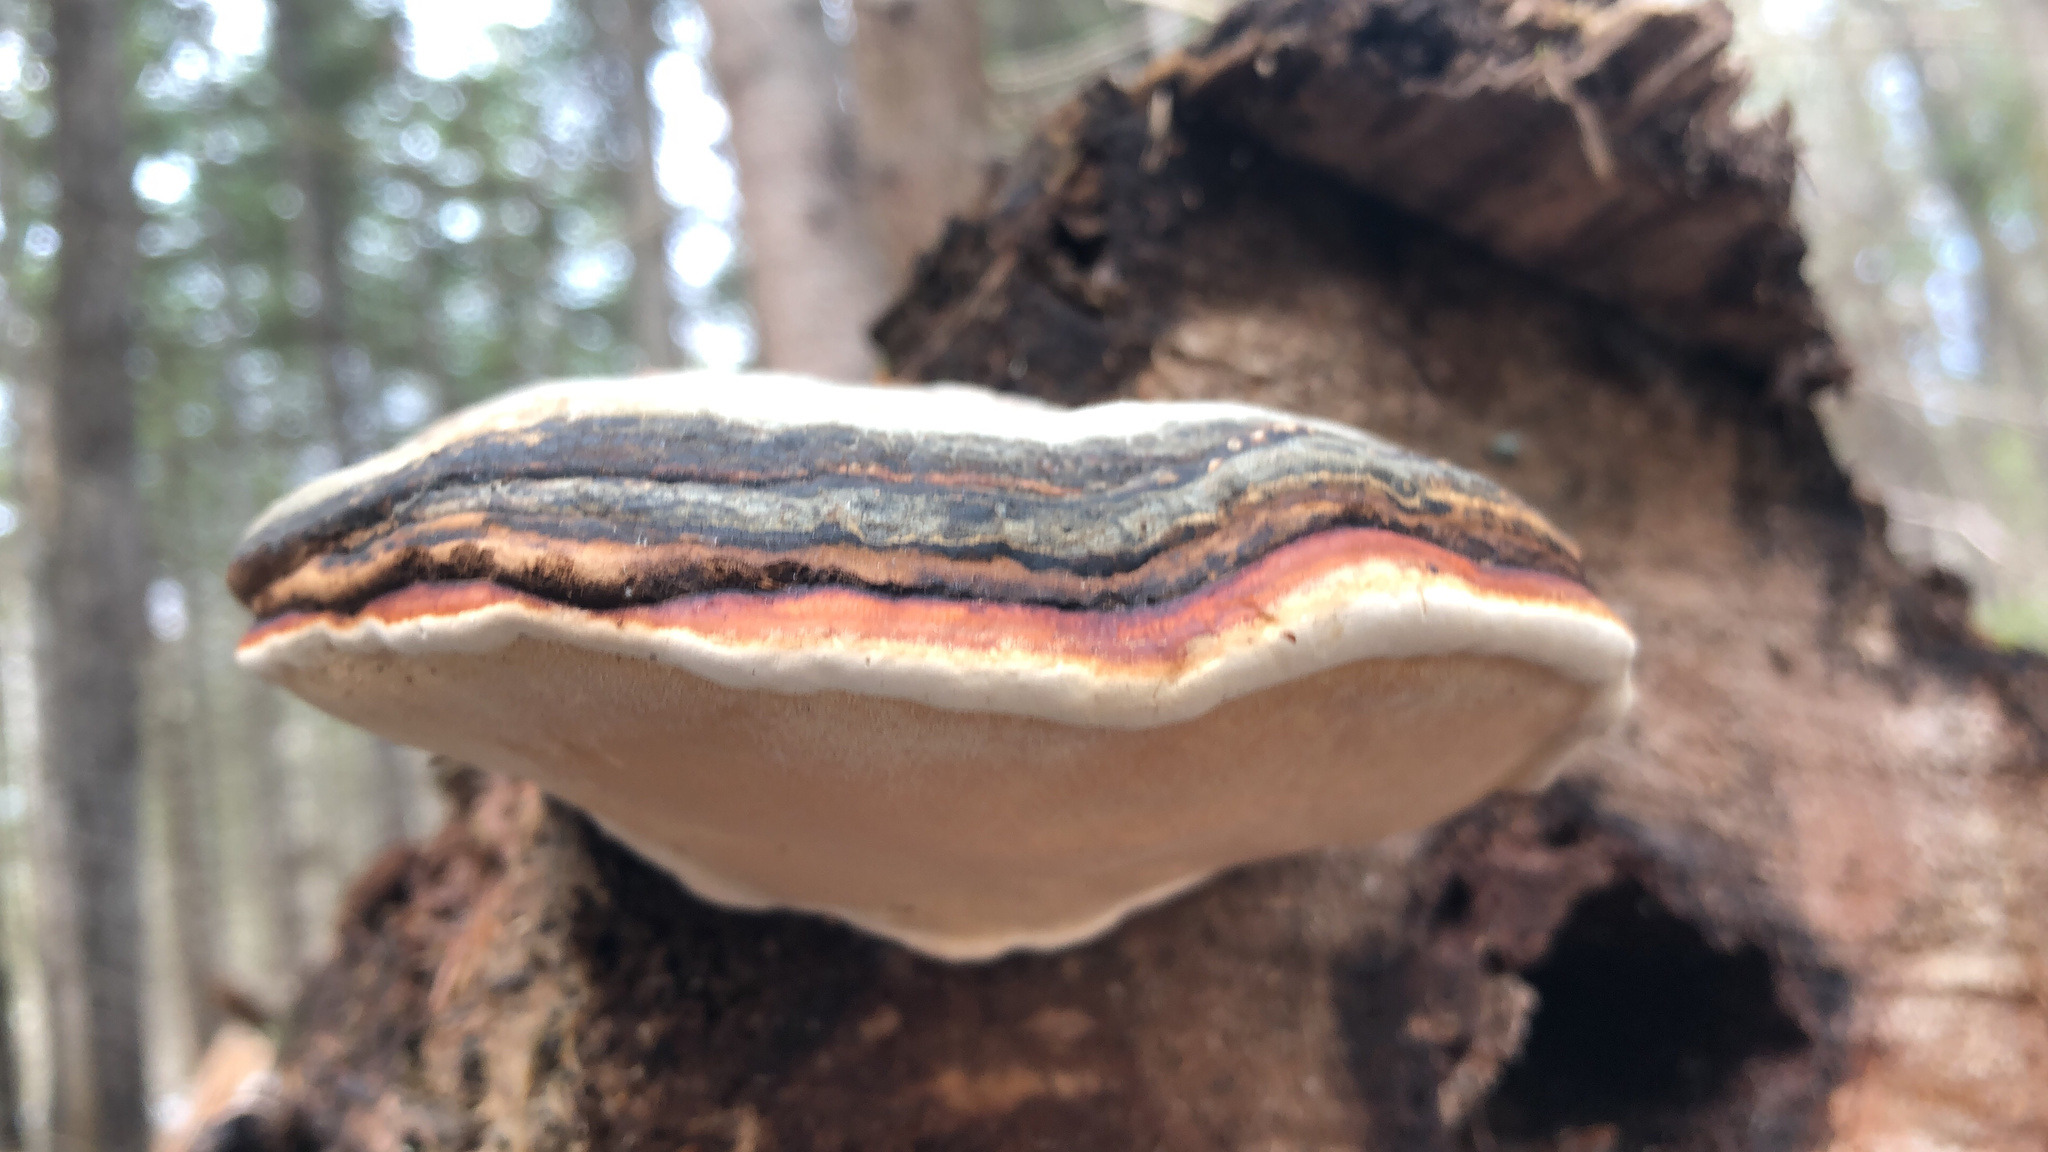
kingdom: Fungi
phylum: Basidiomycota
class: Agaricomycetes
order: Polyporales
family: Fomitopsidaceae
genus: Fomitopsis
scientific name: Fomitopsis mounceae
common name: Northern red belt
